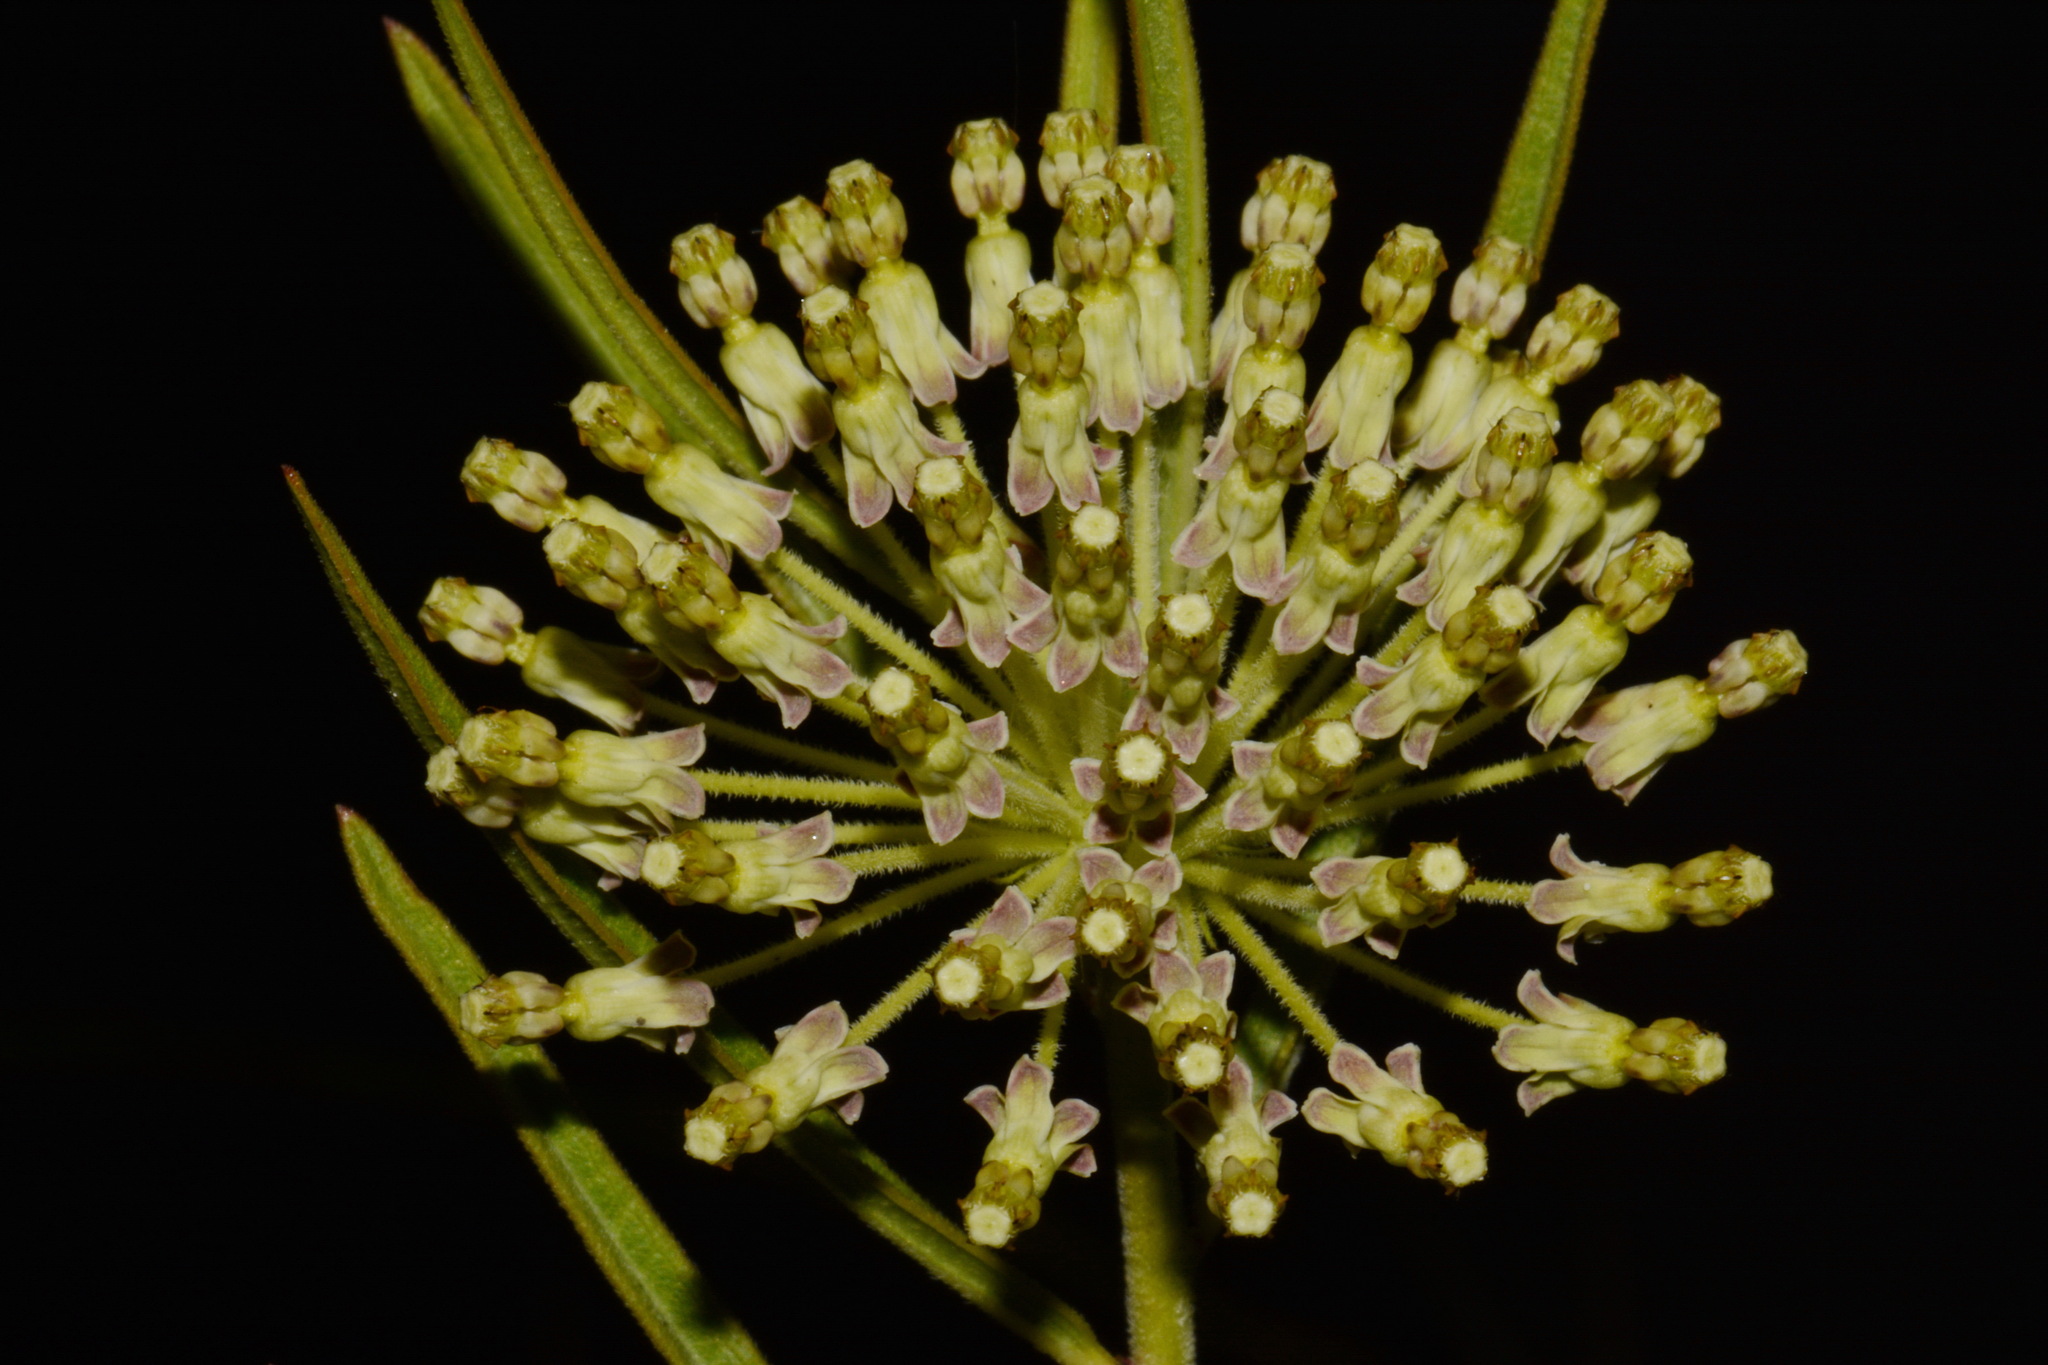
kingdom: Plantae
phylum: Tracheophyta
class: Magnoliopsida
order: Gentianales
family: Apocynaceae
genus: Asclepias
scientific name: Asclepias hirtella
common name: Prairie milkweed
